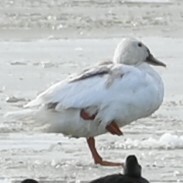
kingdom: Animalia
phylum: Chordata
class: Aves
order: Anseriformes
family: Anatidae
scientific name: Anatidae
